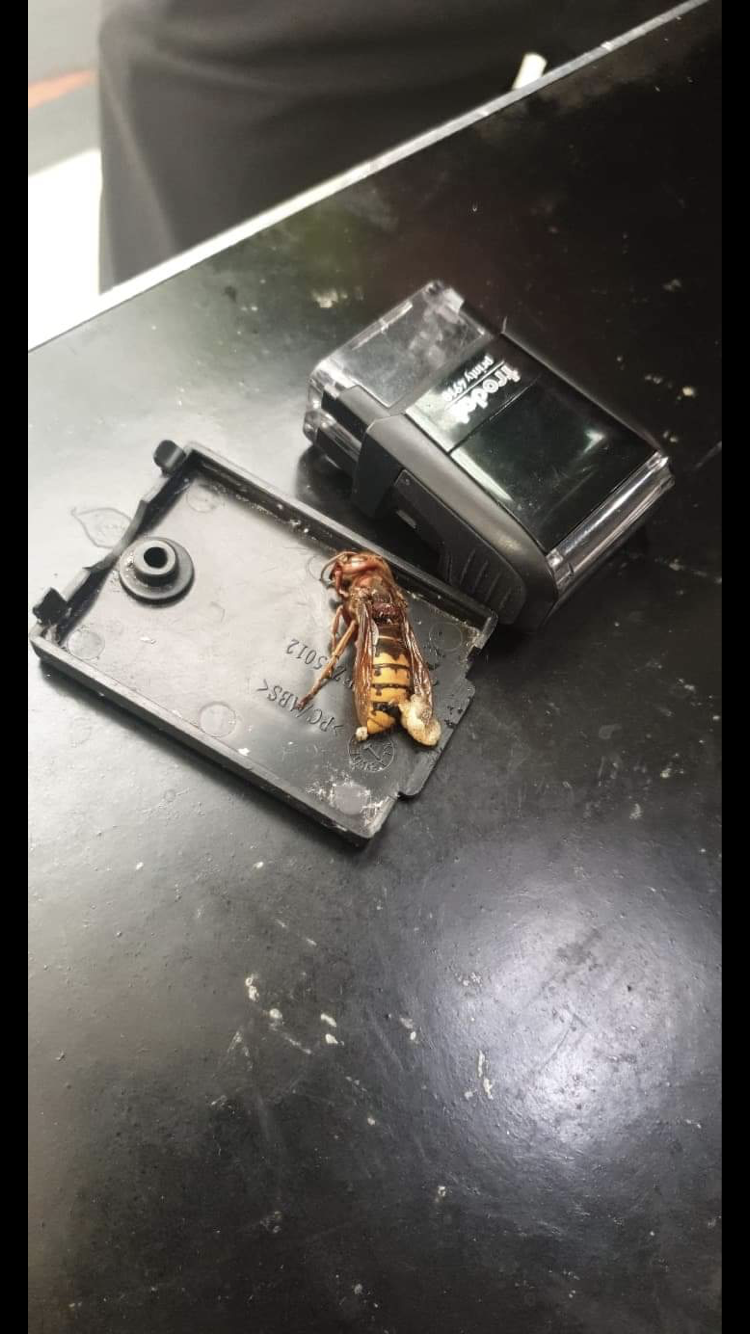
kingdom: Animalia
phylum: Arthropoda
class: Insecta
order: Hymenoptera
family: Vespidae
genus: Vespa
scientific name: Vespa crabro
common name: Hornet
